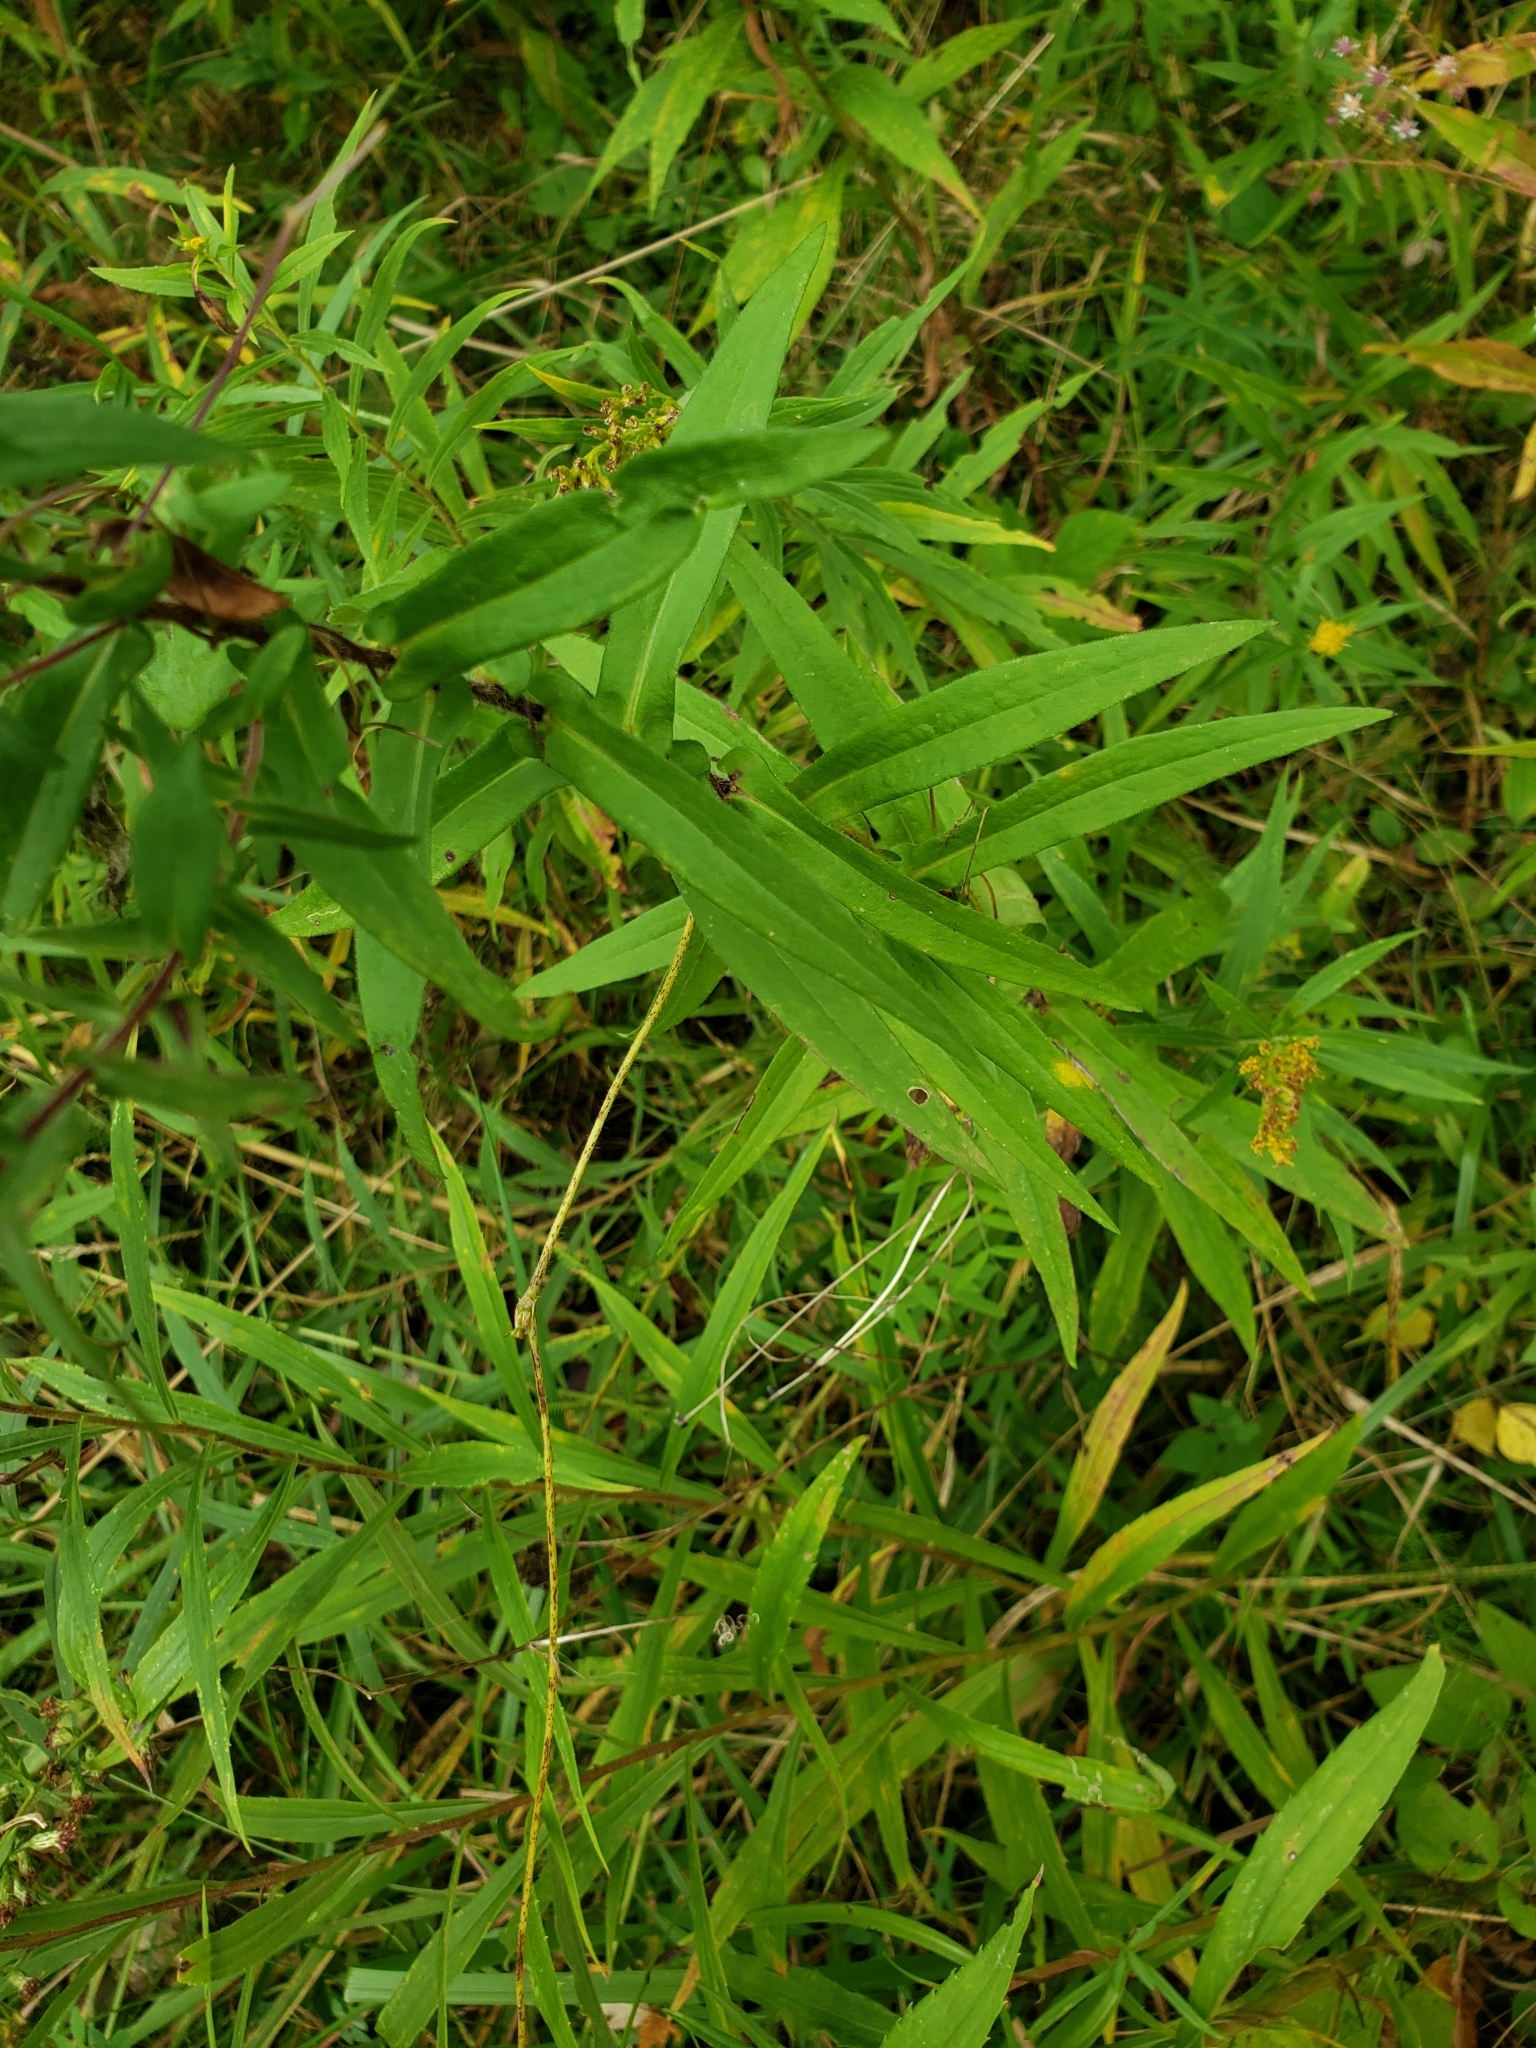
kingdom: Plantae
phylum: Tracheophyta
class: Magnoliopsida
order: Asterales
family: Asteraceae
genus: Symphyotrichum
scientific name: Symphyotrichum novae-angliae
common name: Michaelmas daisy
